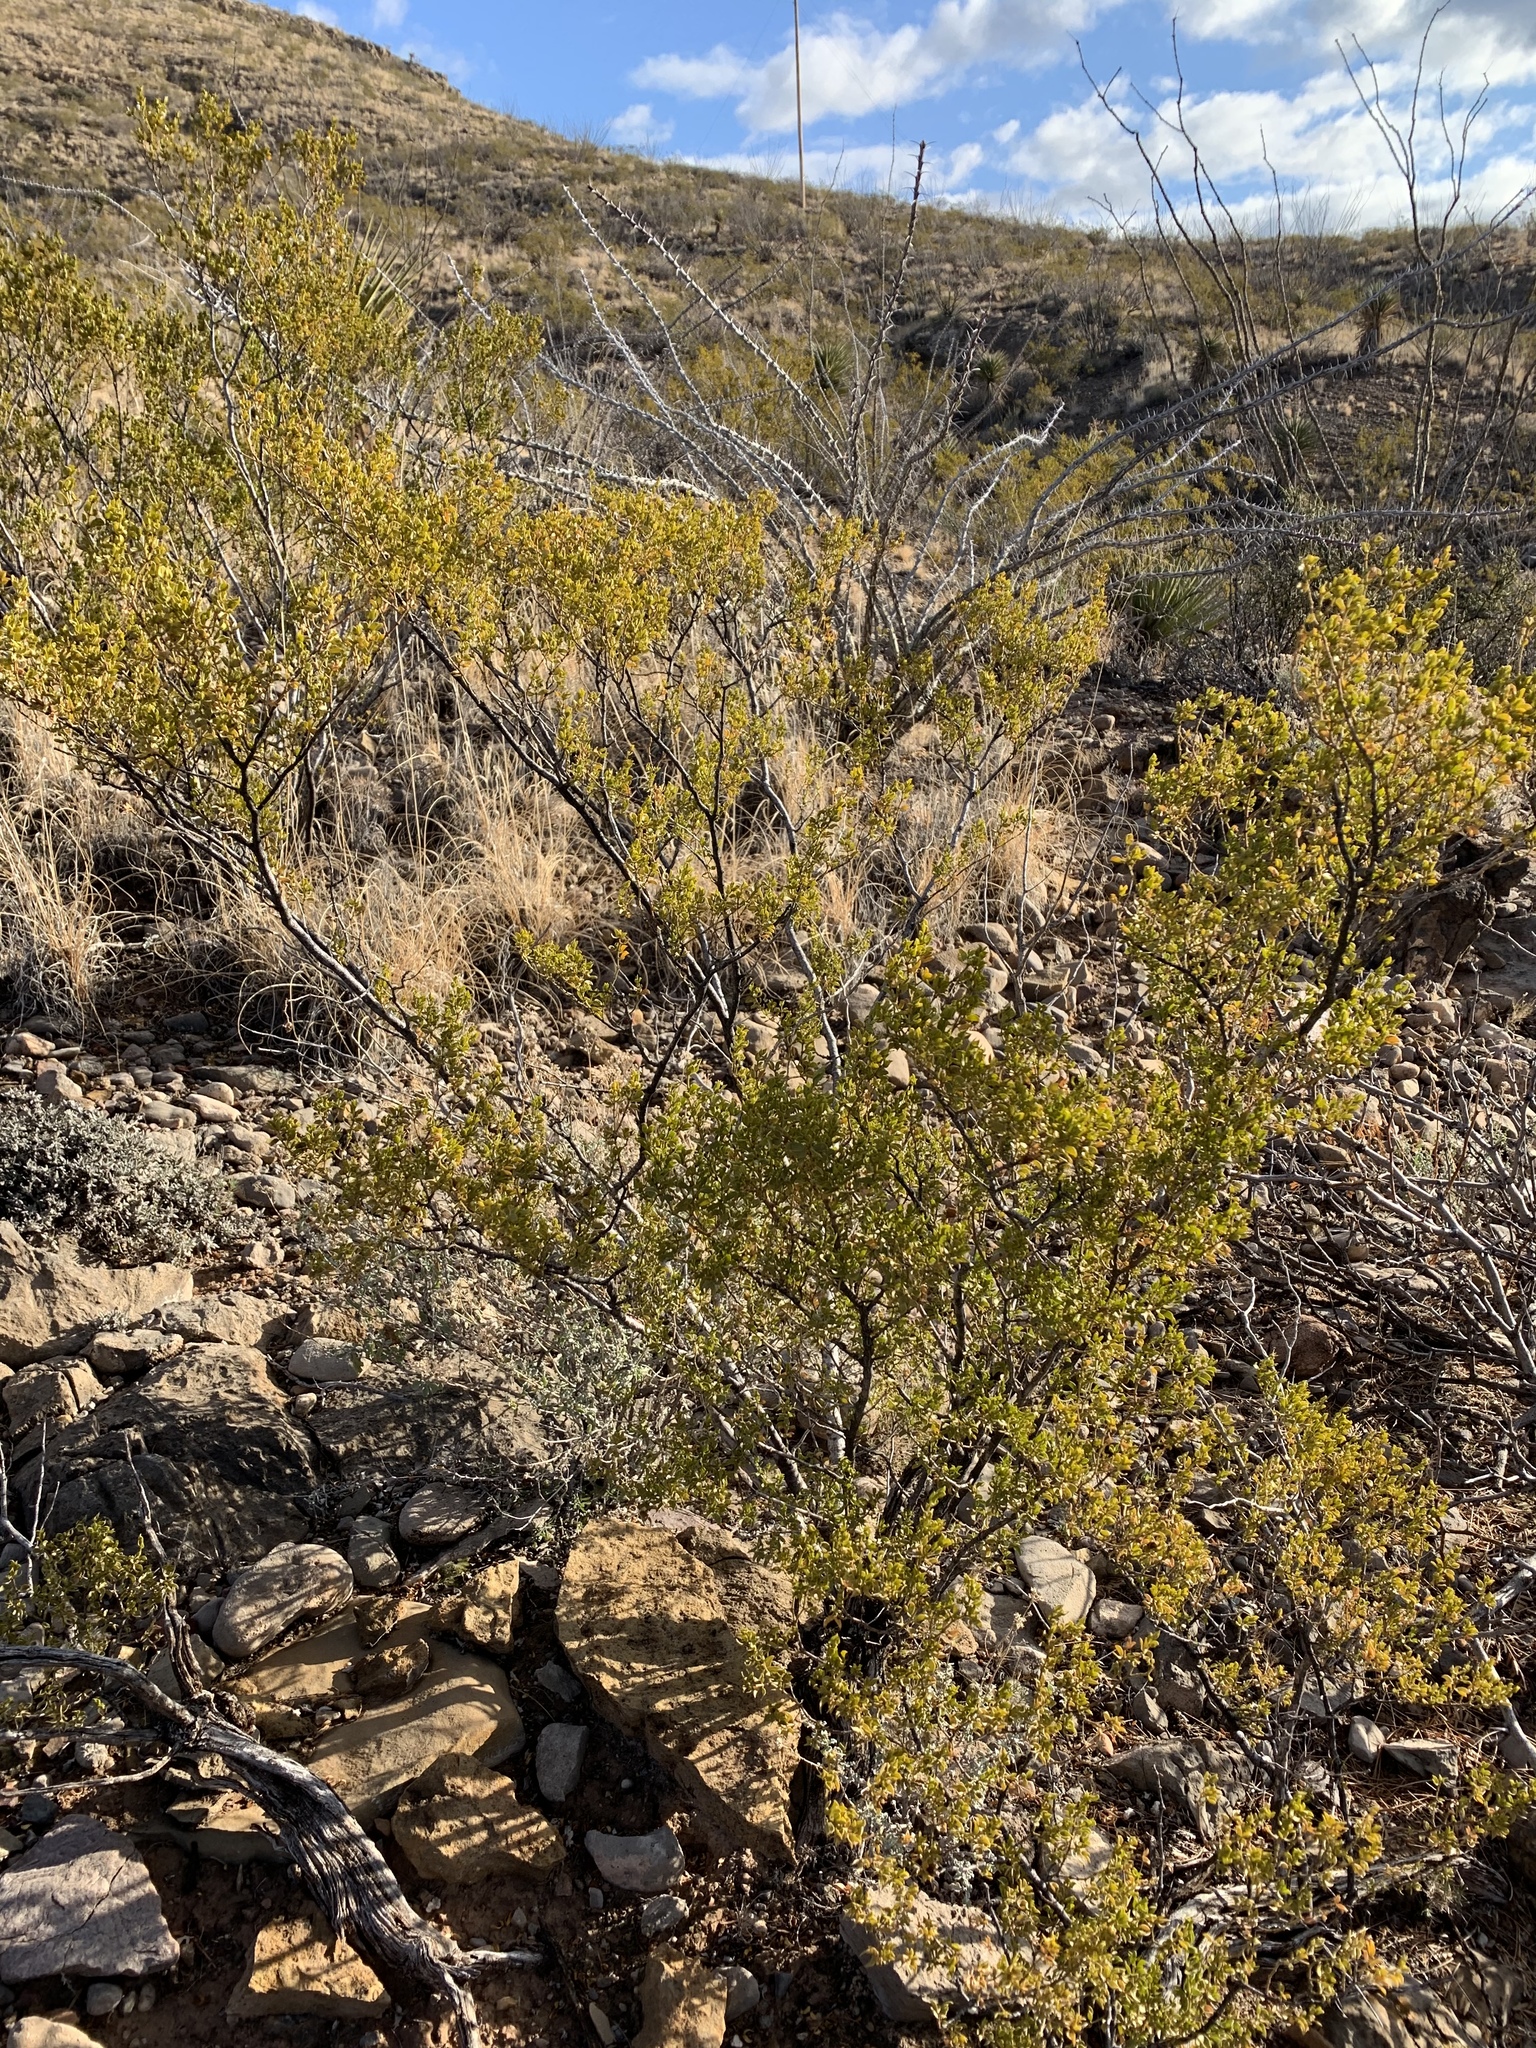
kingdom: Plantae
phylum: Tracheophyta
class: Magnoliopsida
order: Zygophyllales
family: Zygophyllaceae
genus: Larrea
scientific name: Larrea tridentata
